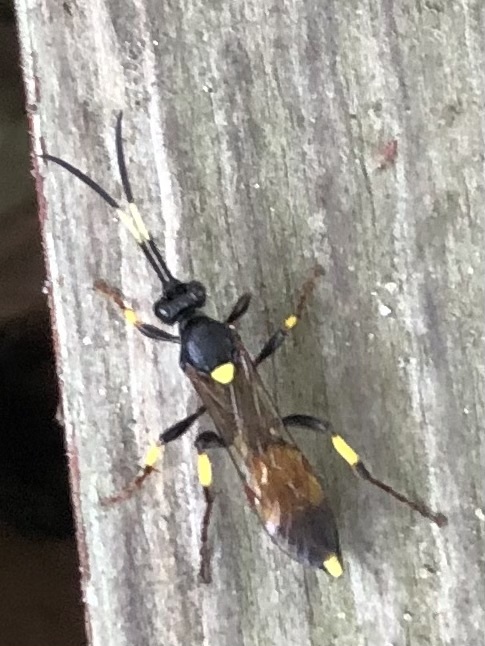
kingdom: Animalia
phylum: Arthropoda
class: Insecta
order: Hymenoptera
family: Ichneumonidae
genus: Ichneumon
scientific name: Ichneumon stramentor
